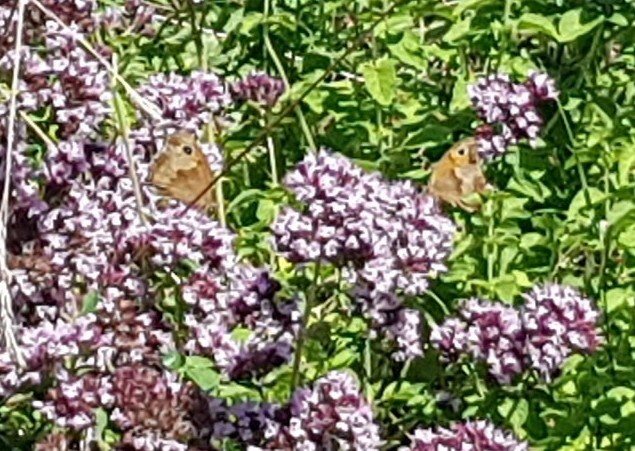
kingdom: Animalia
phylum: Arthropoda
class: Insecta
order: Lepidoptera
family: Nymphalidae
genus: Maniola
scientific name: Maniola jurtina
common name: Meadow brown
